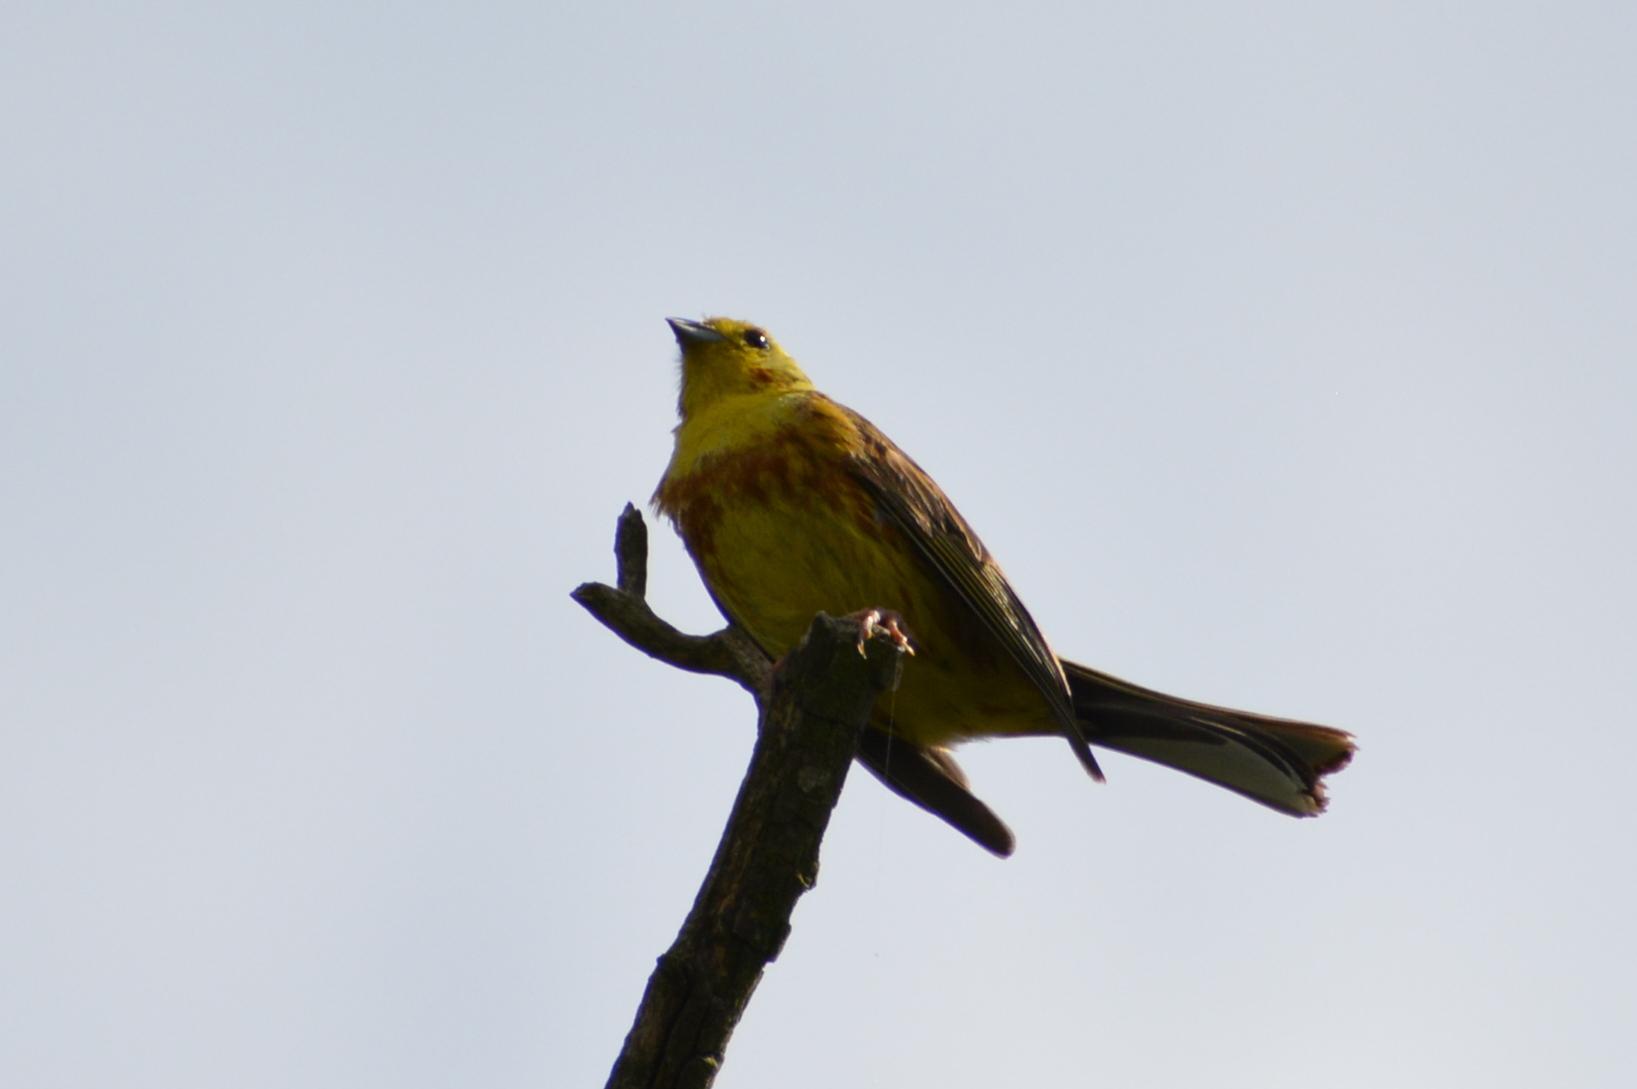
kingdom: Animalia
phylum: Chordata
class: Aves
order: Passeriformes
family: Emberizidae
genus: Emberiza
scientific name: Emberiza citrinella
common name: Yellowhammer
